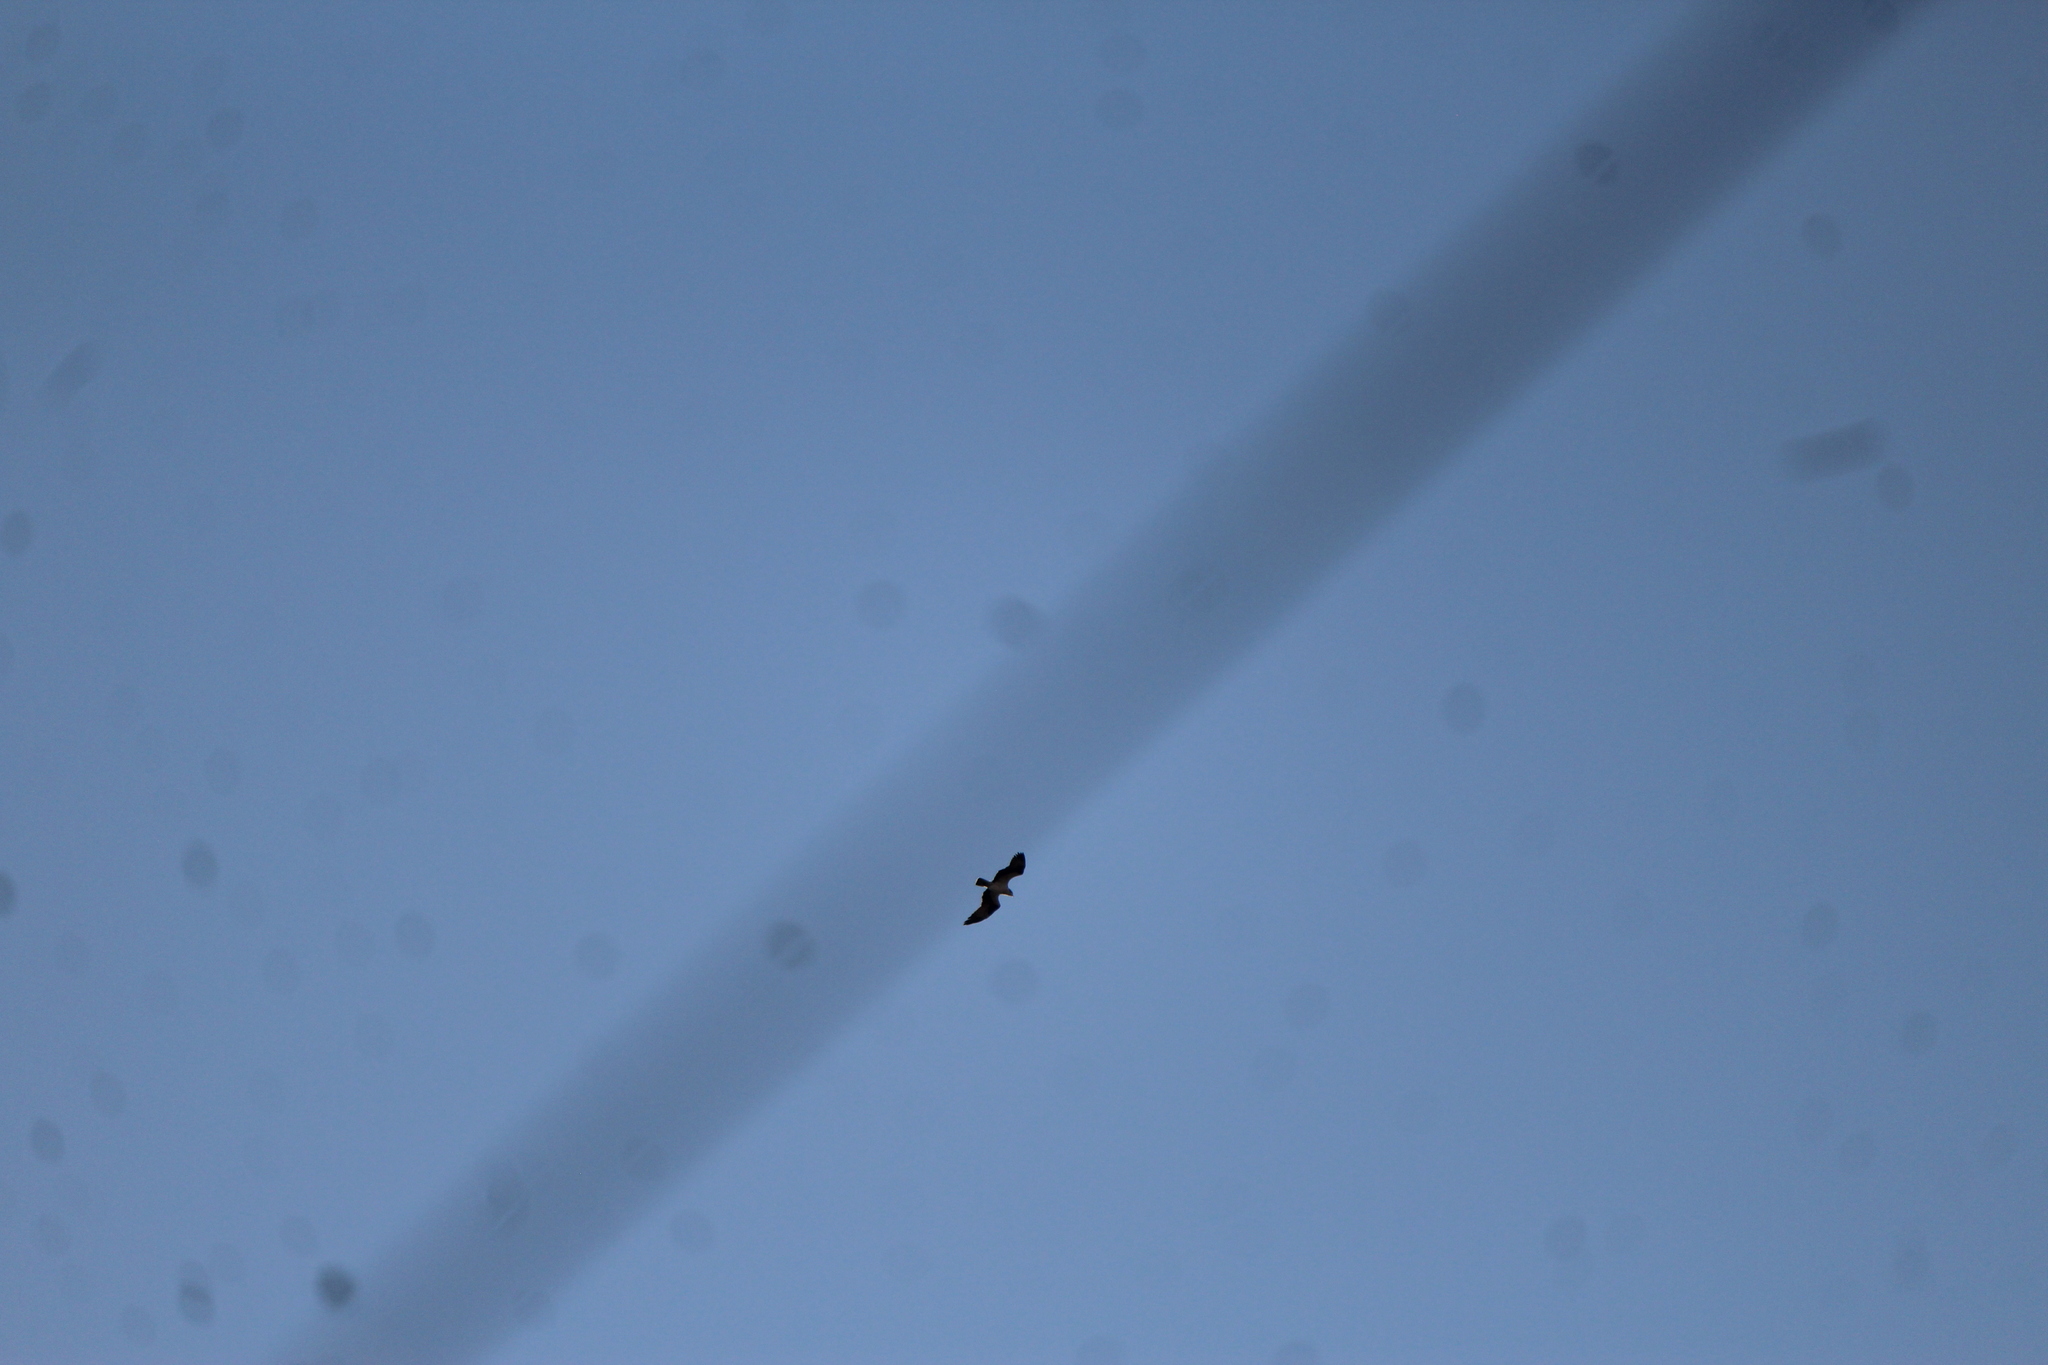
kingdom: Animalia
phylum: Chordata
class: Aves
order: Accipitriformes
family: Pandionidae
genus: Pandion
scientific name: Pandion haliaetus
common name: Osprey
